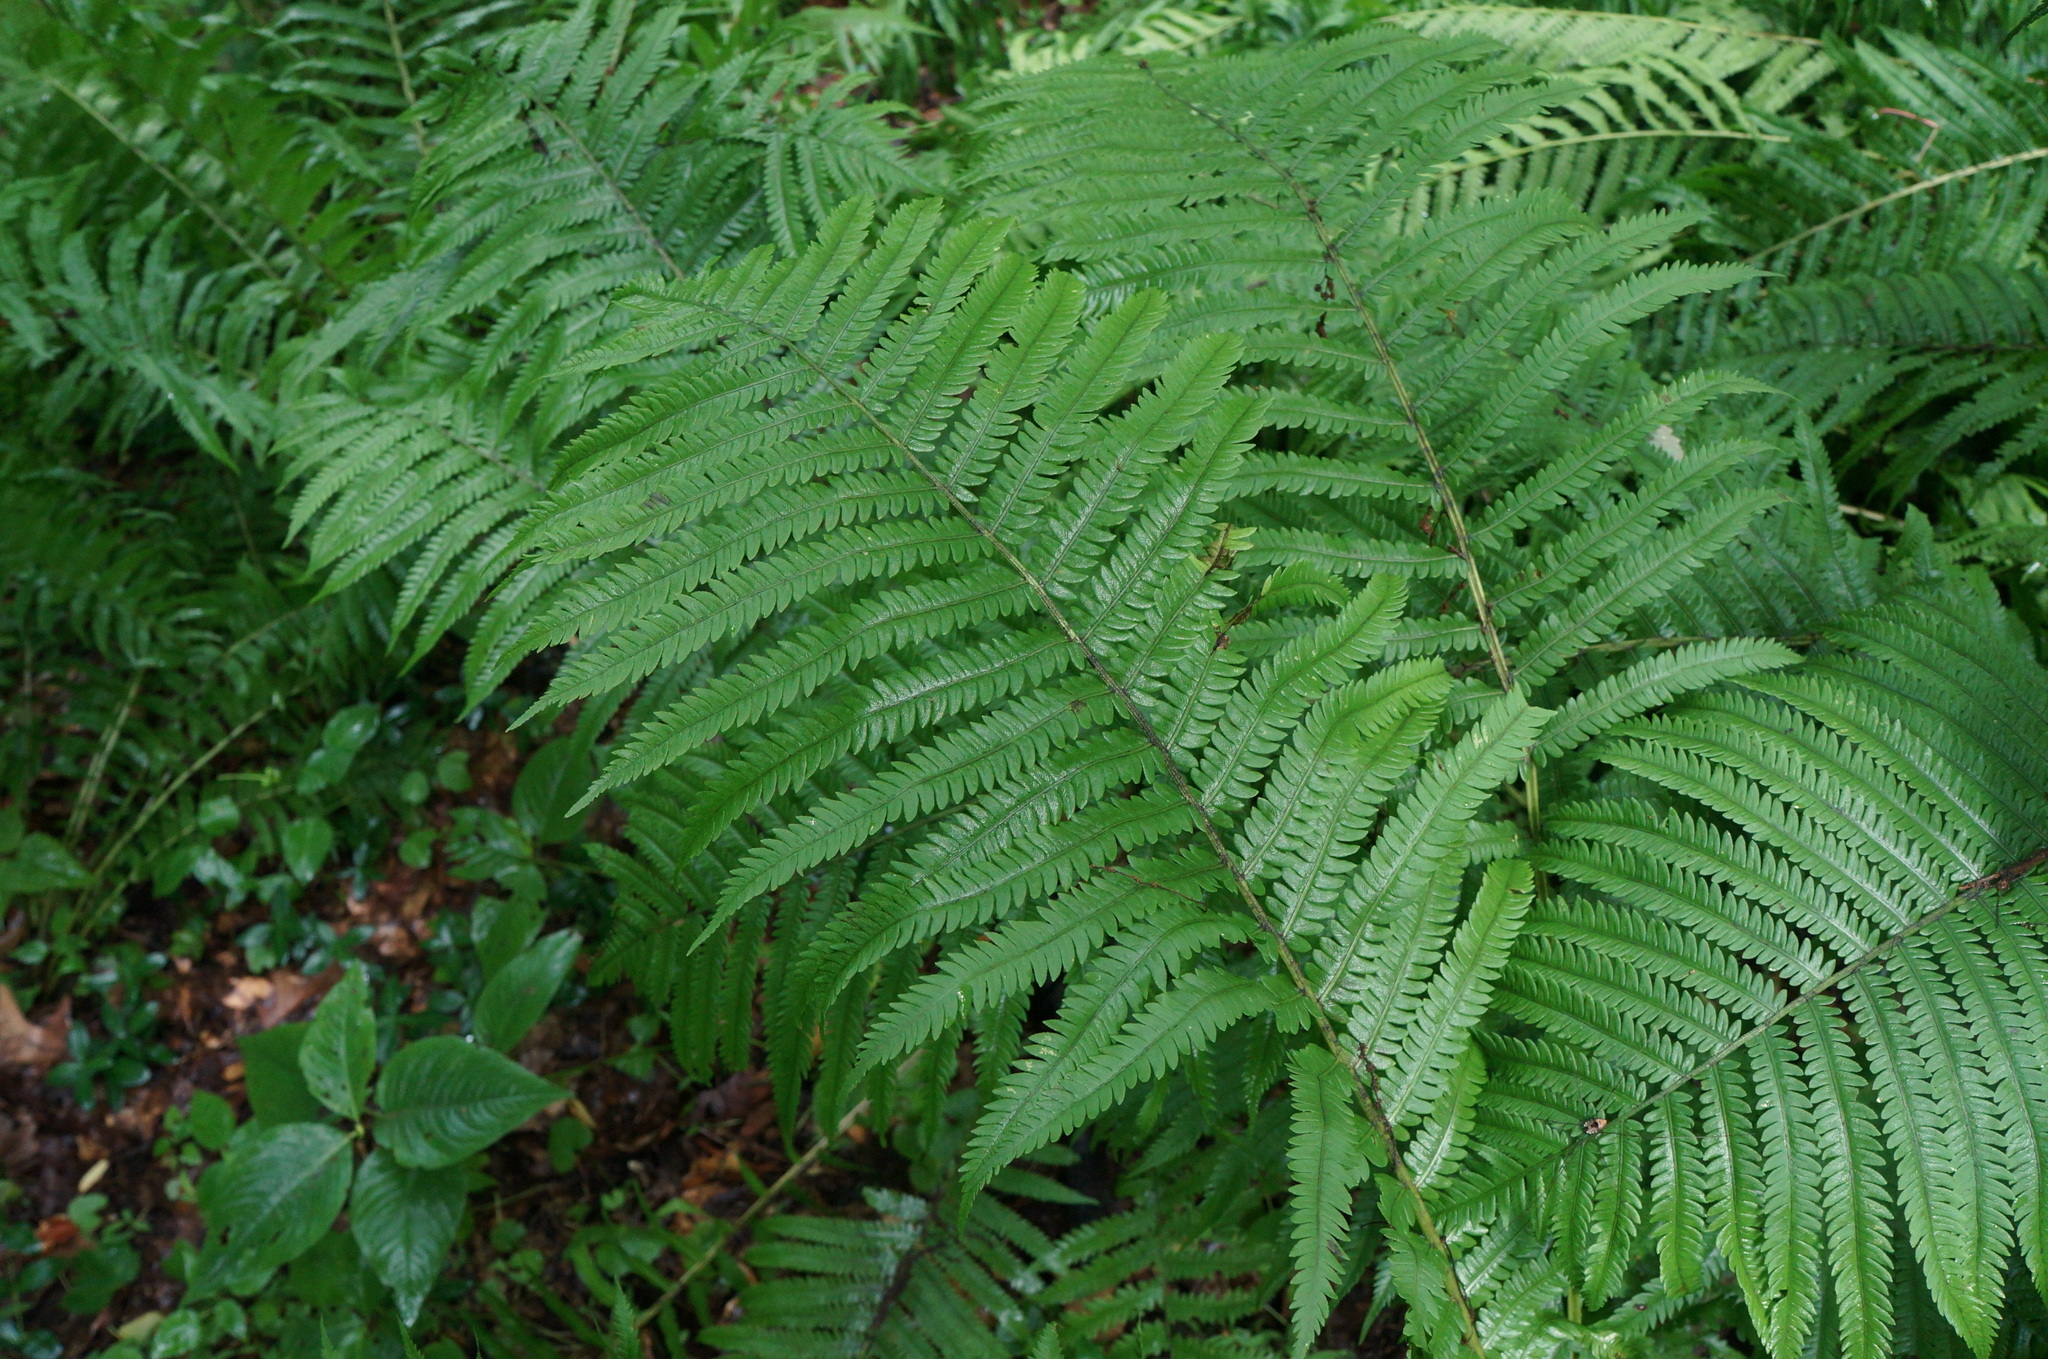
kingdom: Plantae
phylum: Tracheophyta
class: Polypodiopsida
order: Polypodiales
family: Onocleaceae
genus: Matteuccia
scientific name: Matteuccia struthiopteris
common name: Ostrich fern
